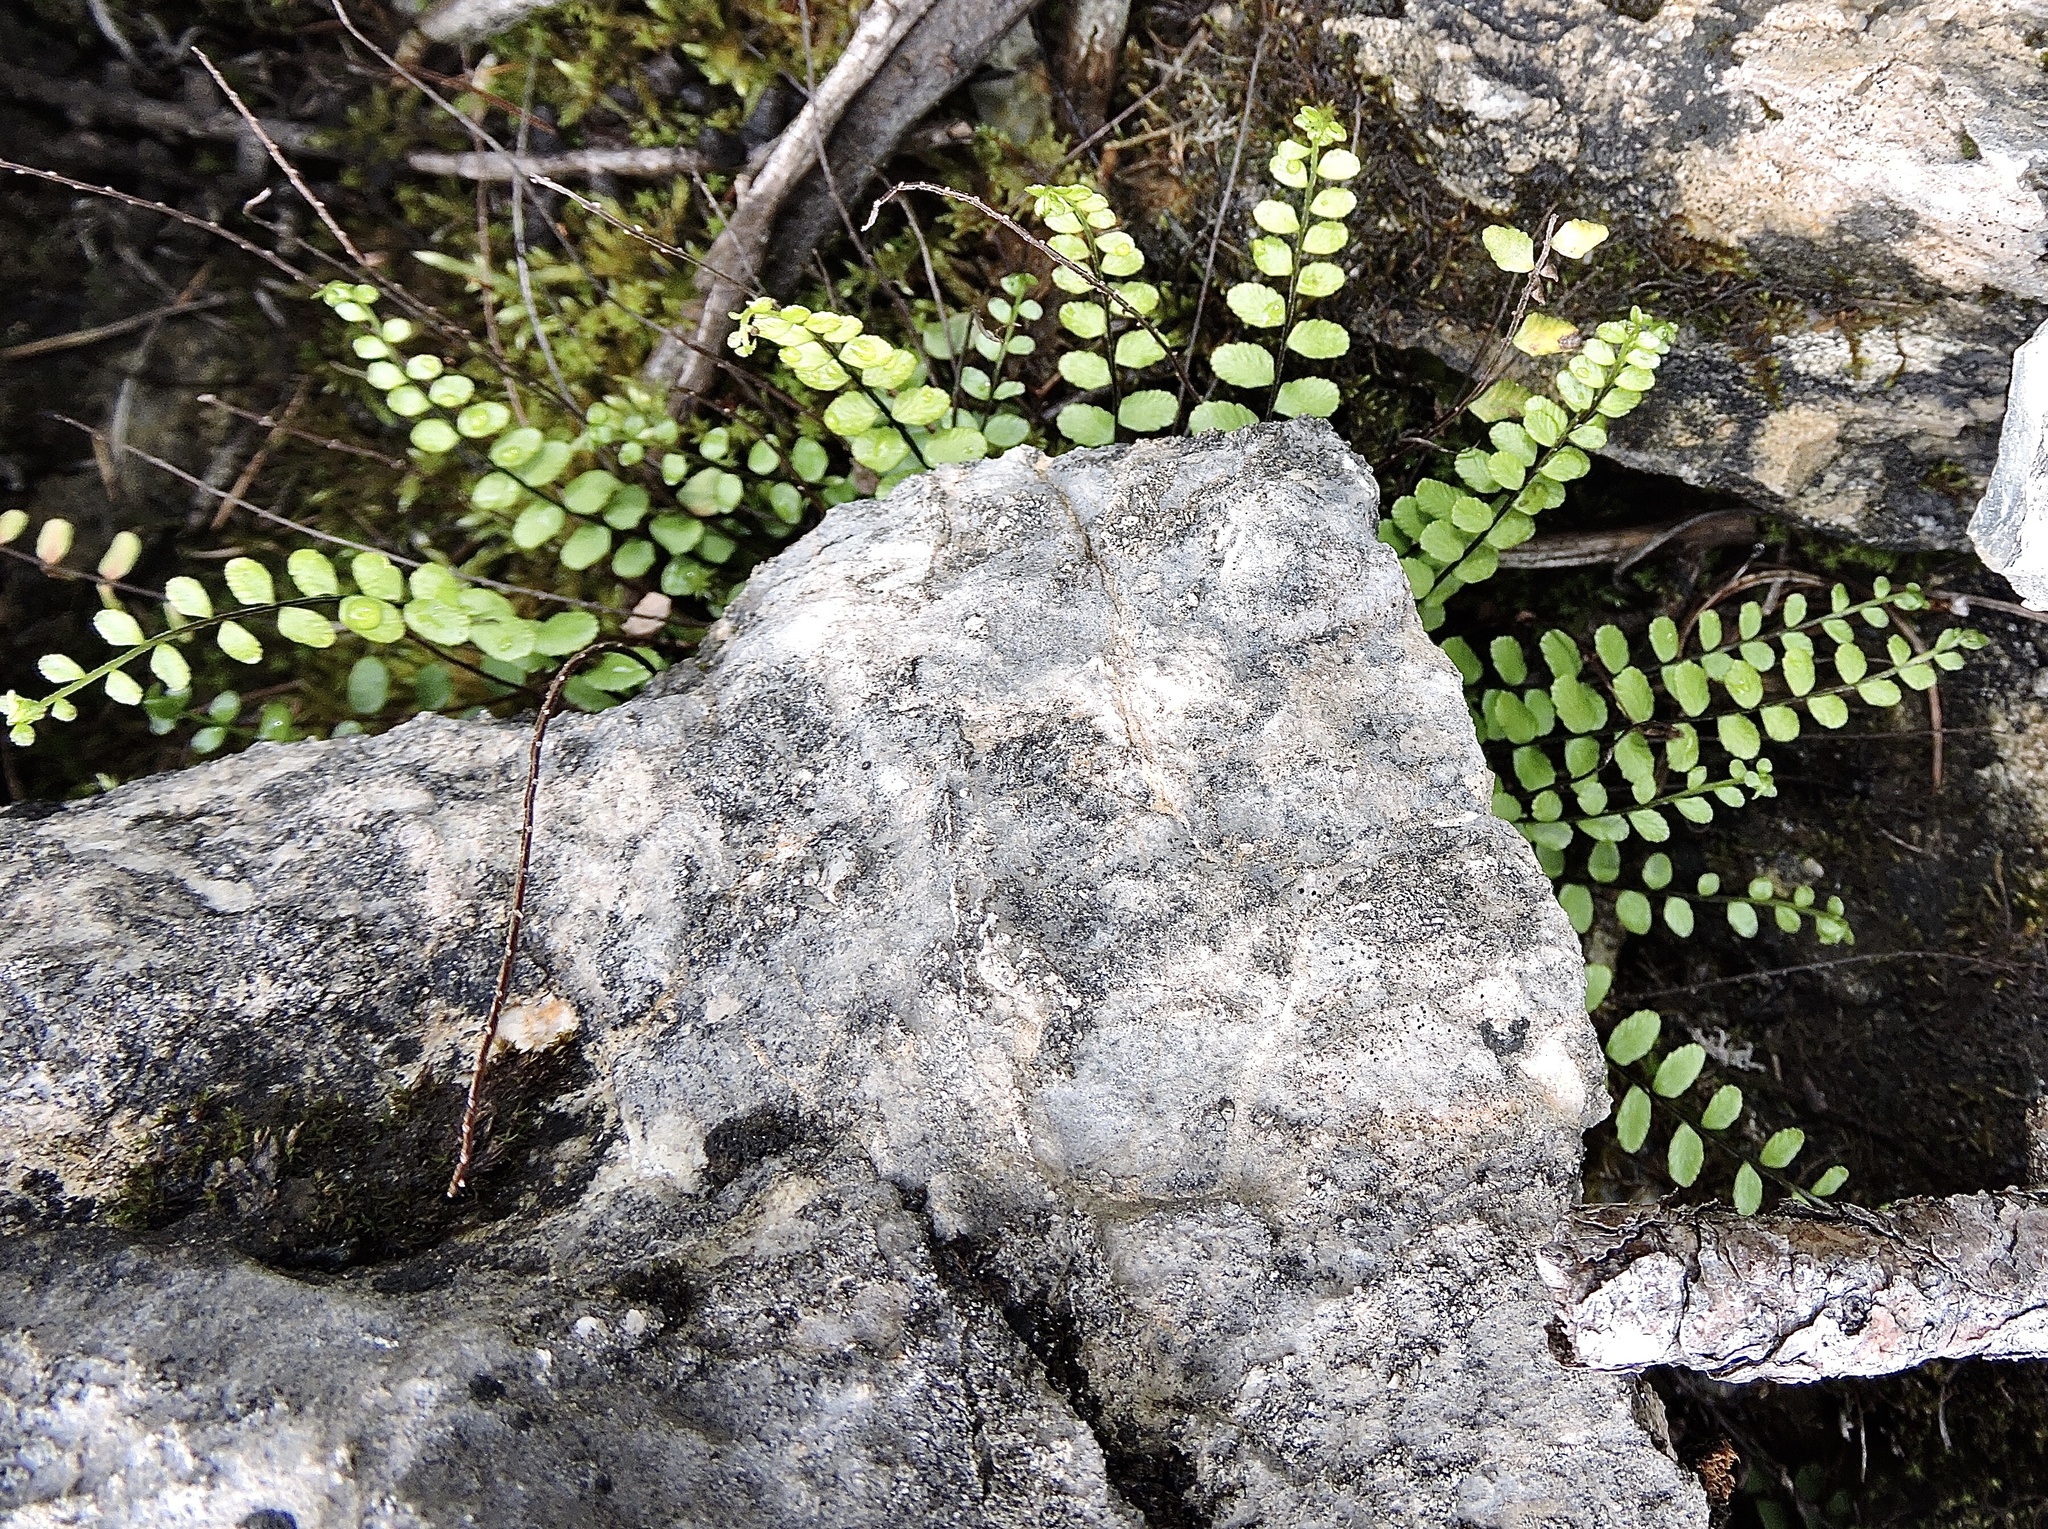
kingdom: Plantae
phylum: Tracheophyta
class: Polypodiopsida
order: Polypodiales
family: Aspleniaceae
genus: Asplenium
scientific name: Asplenium trichomanes
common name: Maidenhair spleenwort
